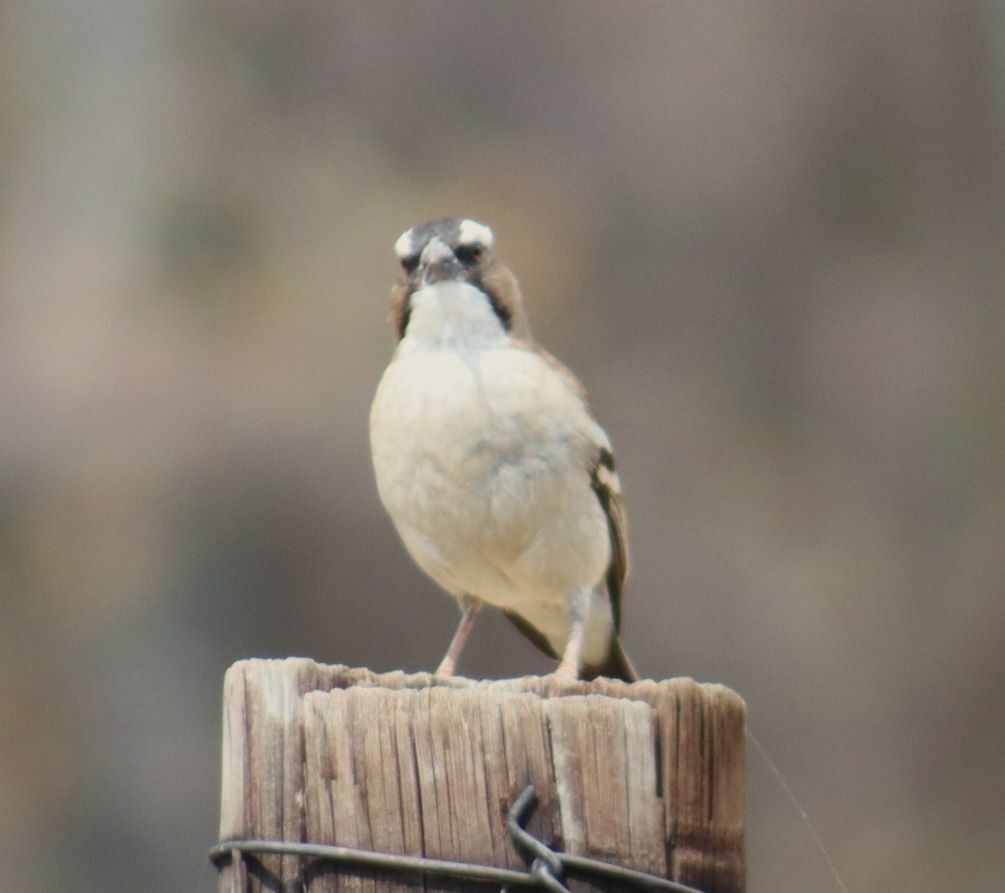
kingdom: Animalia
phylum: Chordata
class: Aves
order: Passeriformes
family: Passeridae
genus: Plocepasser
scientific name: Plocepasser mahali
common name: White-browed sparrow-weaver
